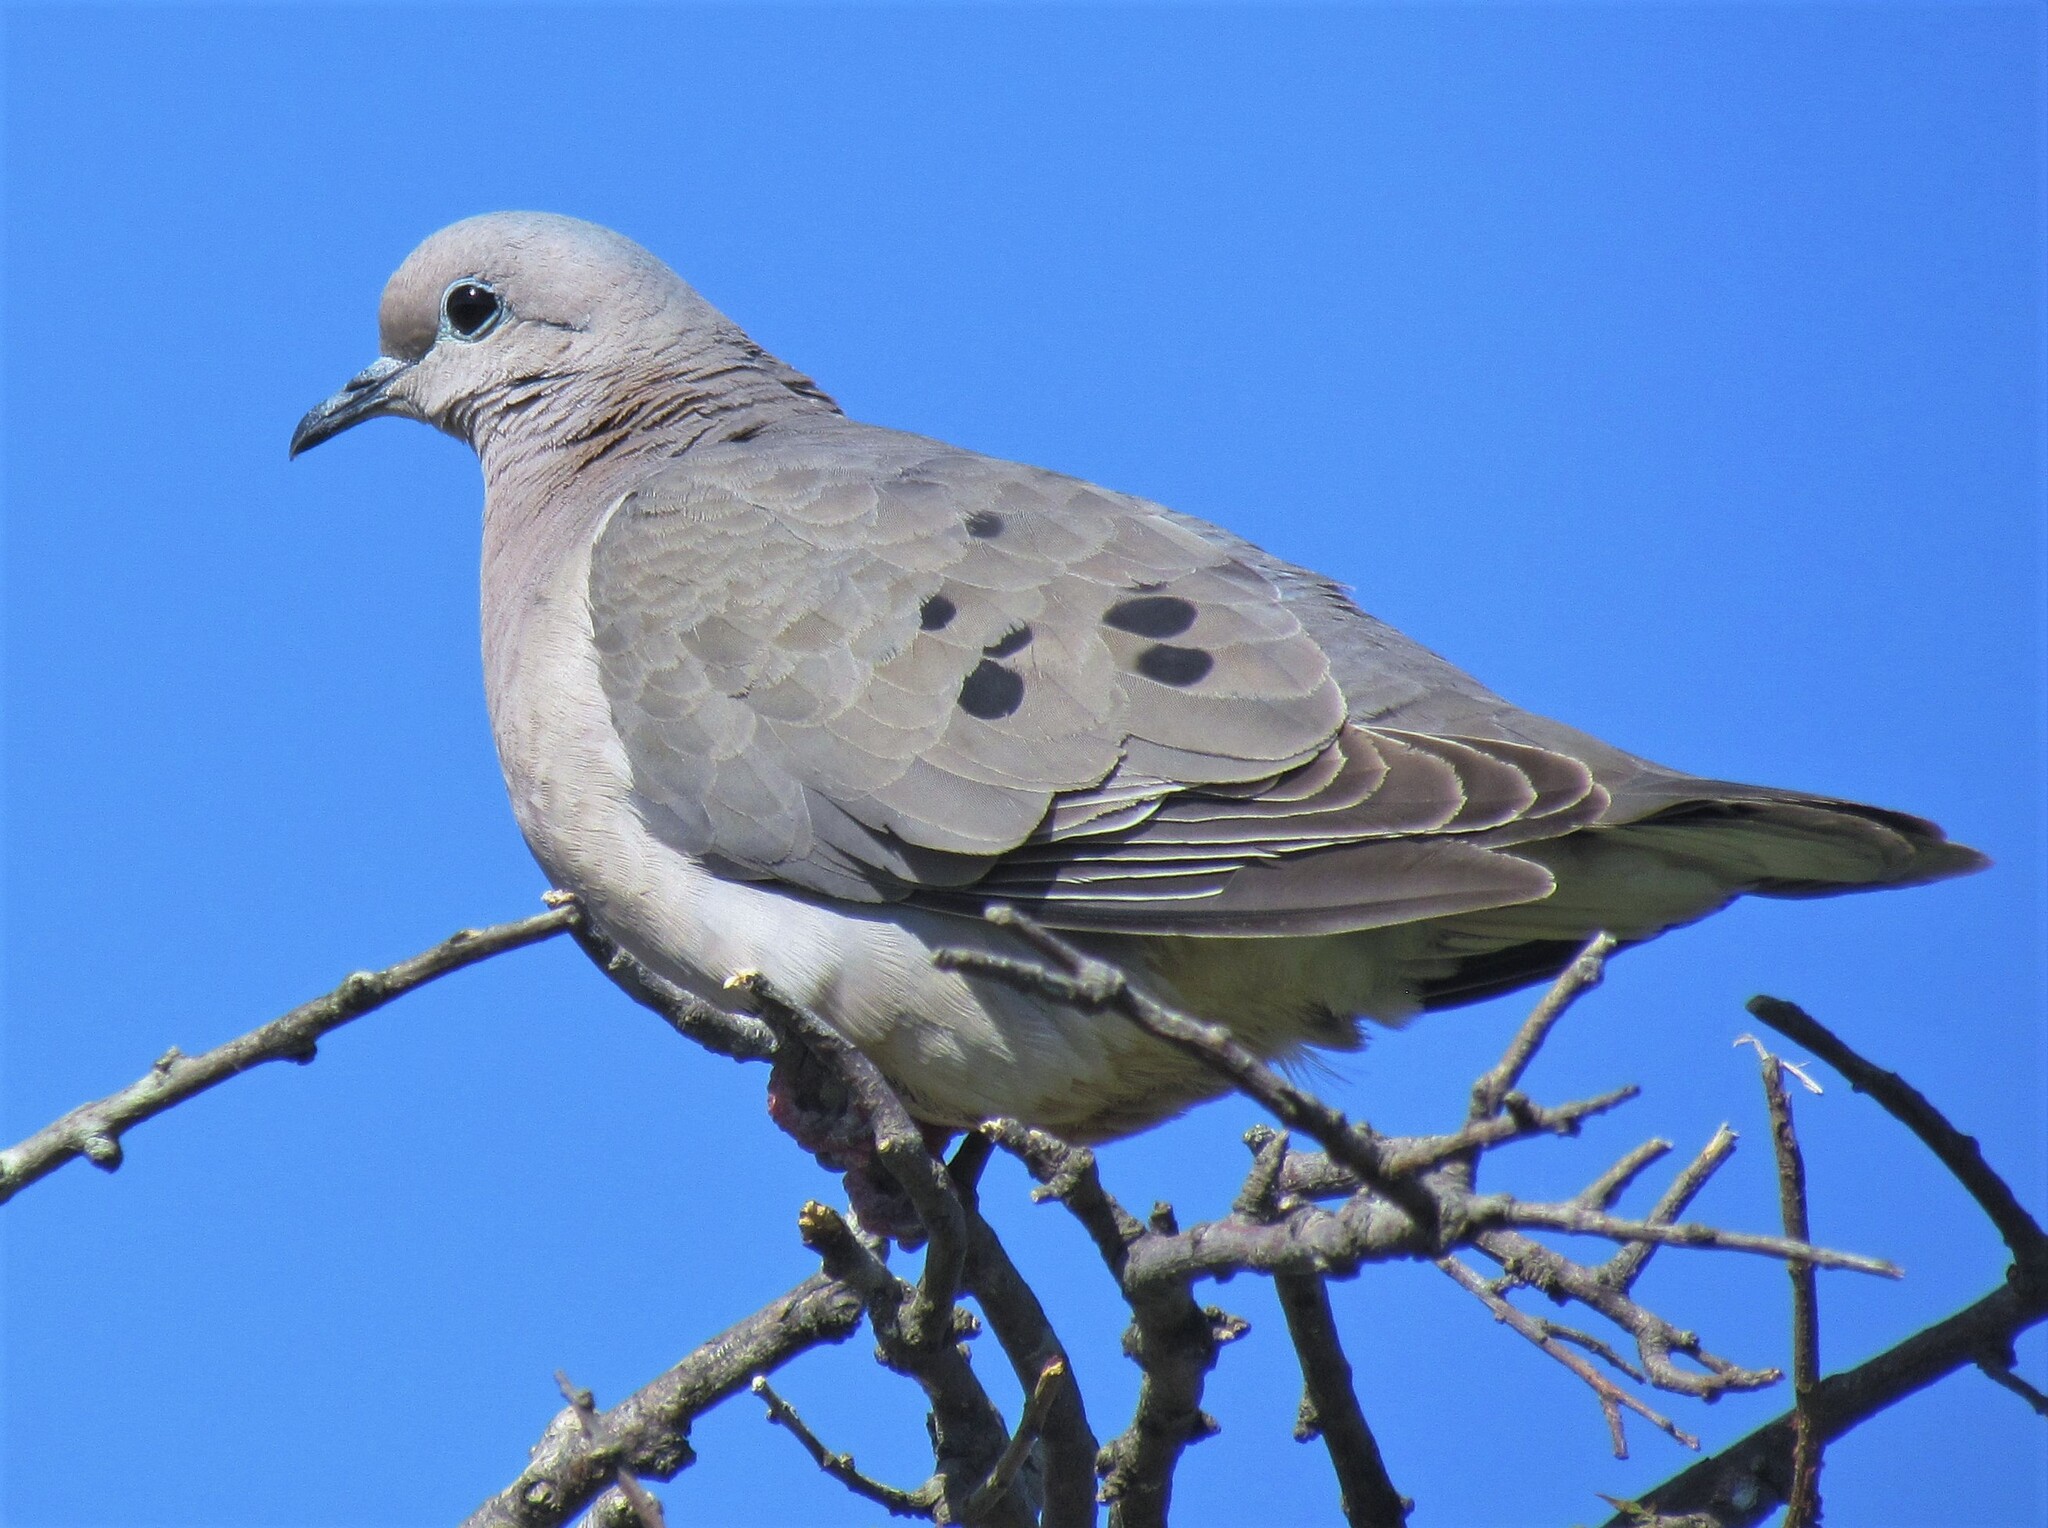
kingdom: Animalia
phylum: Chordata
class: Aves
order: Columbiformes
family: Columbidae
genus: Zenaida
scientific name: Zenaida auriculata
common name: Eared dove
